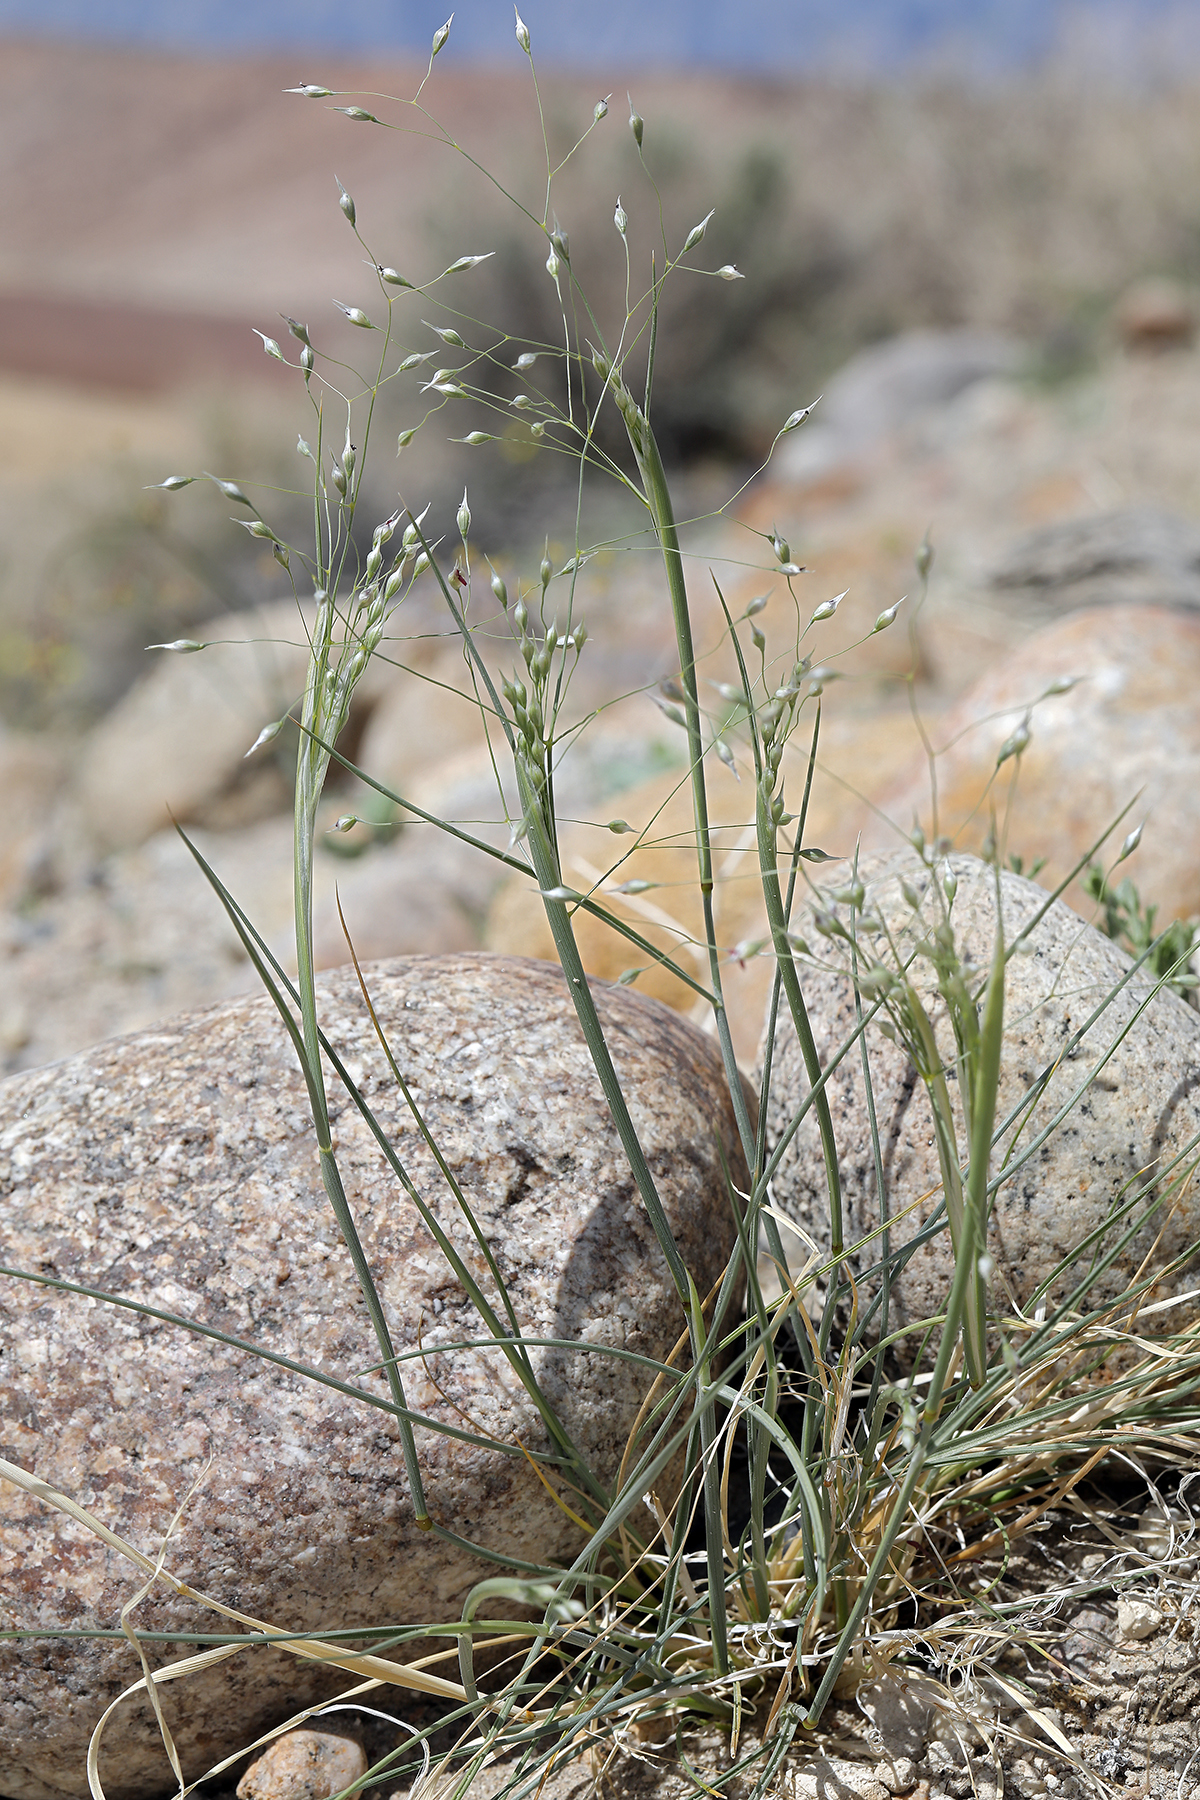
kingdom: Plantae
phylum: Tracheophyta
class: Liliopsida
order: Poales
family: Poaceae
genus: Eriocoma
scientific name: Eriocoma hymenoides
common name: Indian mountain ricegrass
